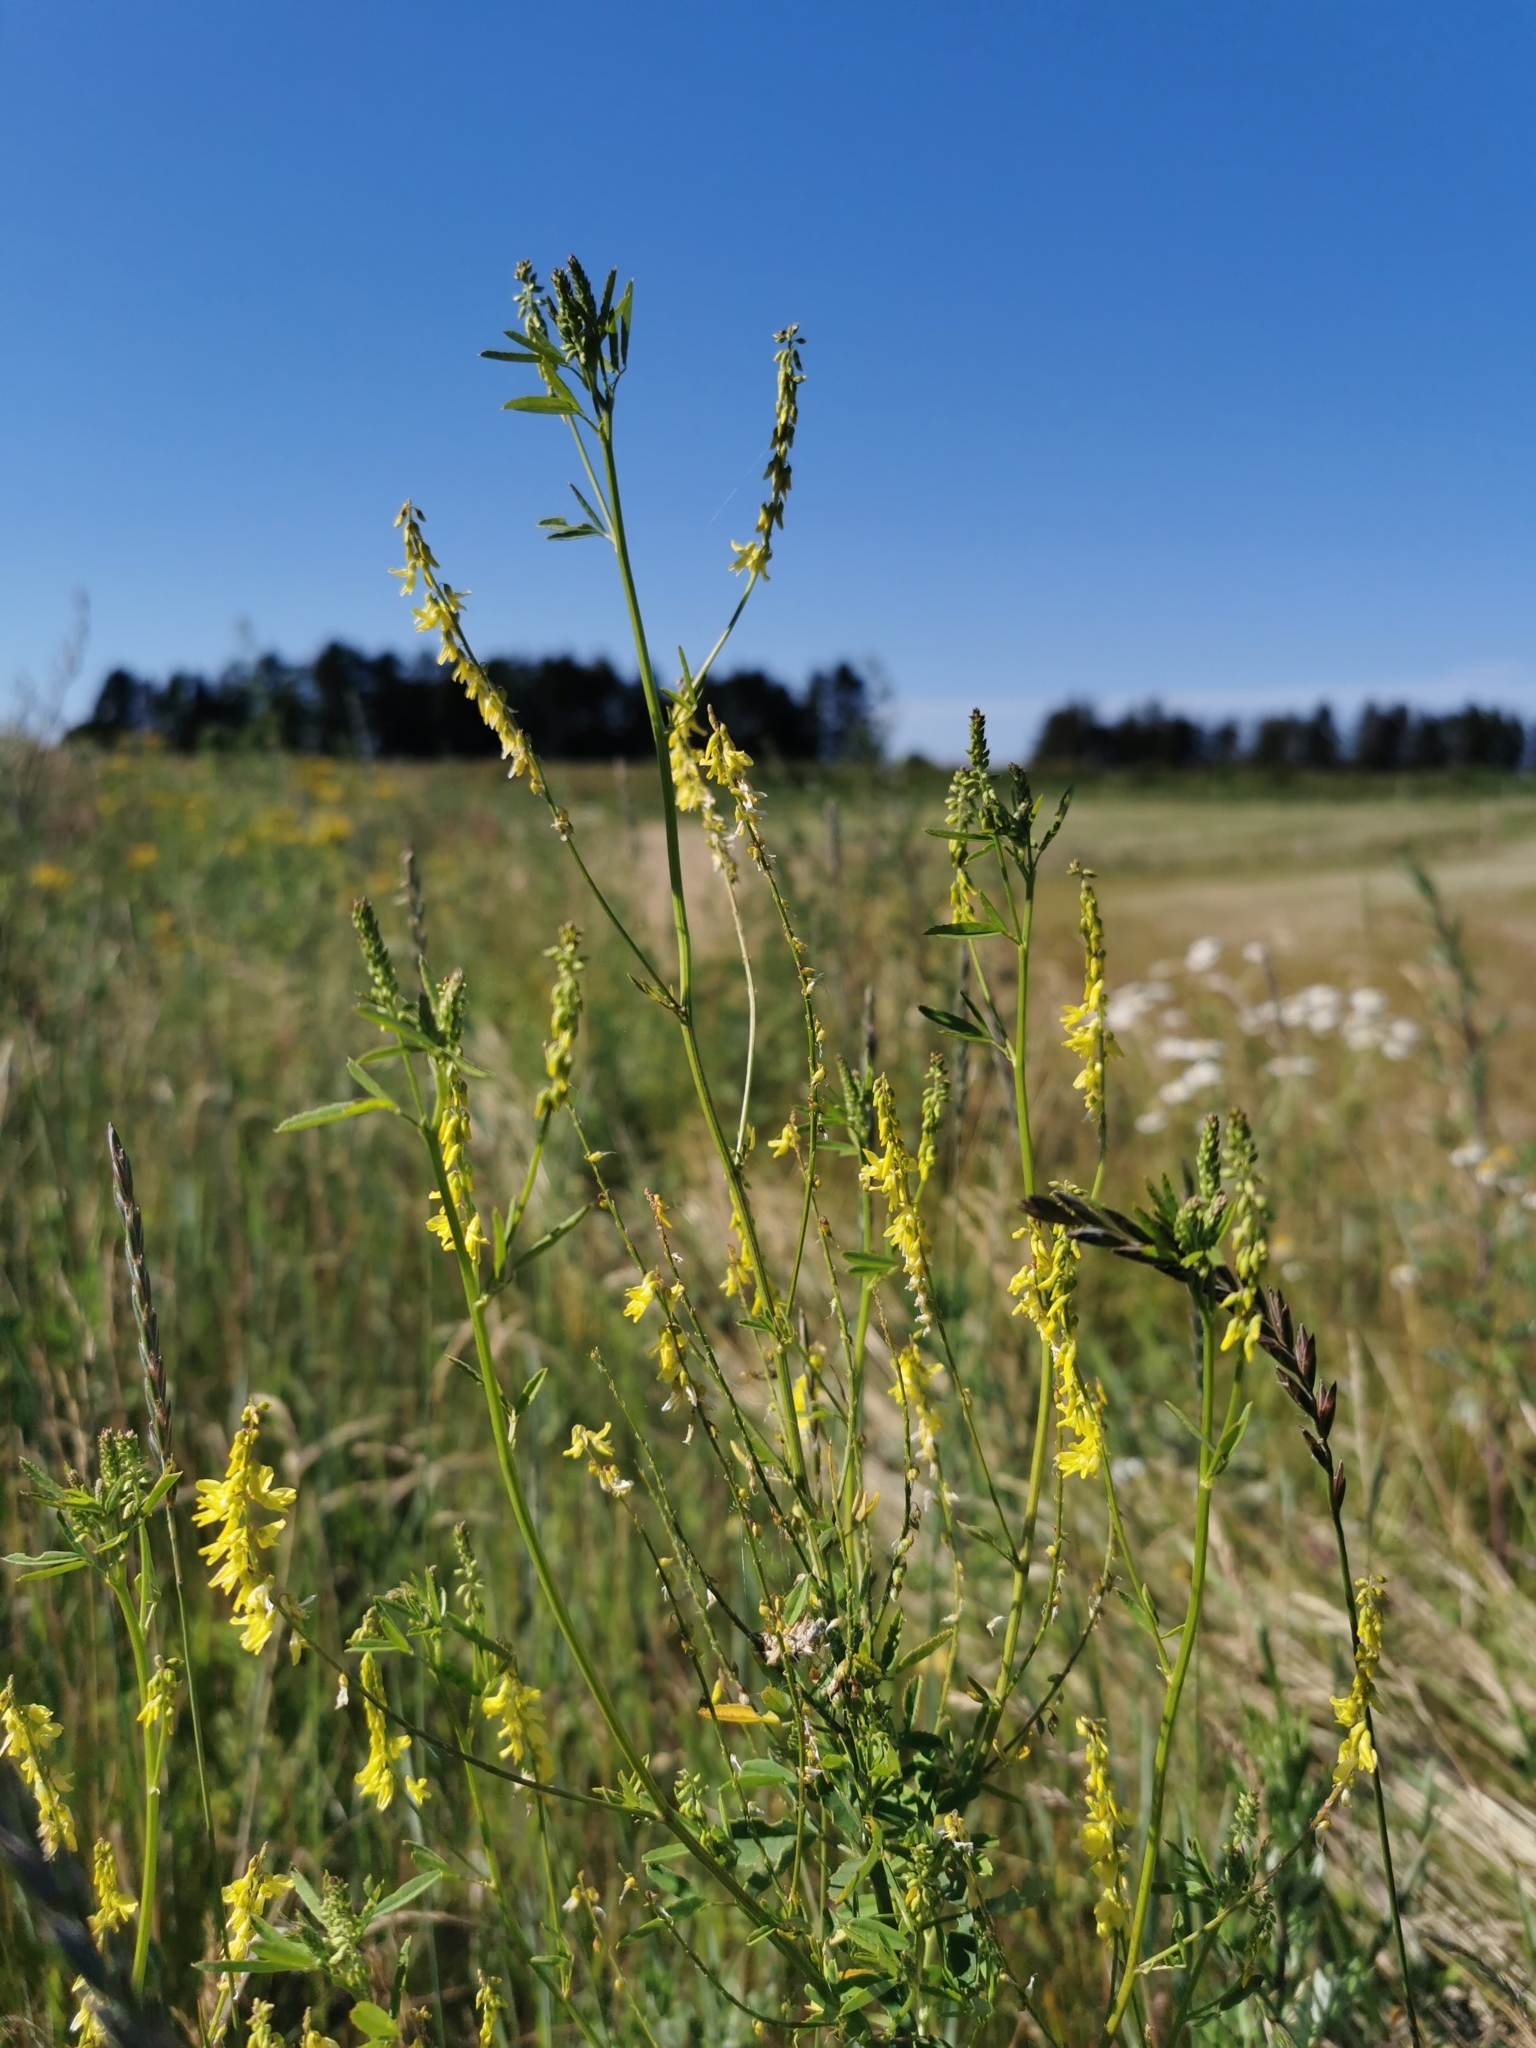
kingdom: Plantae
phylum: Tracheophyta
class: Magnoliopsida
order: Fabales
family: Fabaceae
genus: Melilotus
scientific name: Melilotus officinalis
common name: Sweetclover
